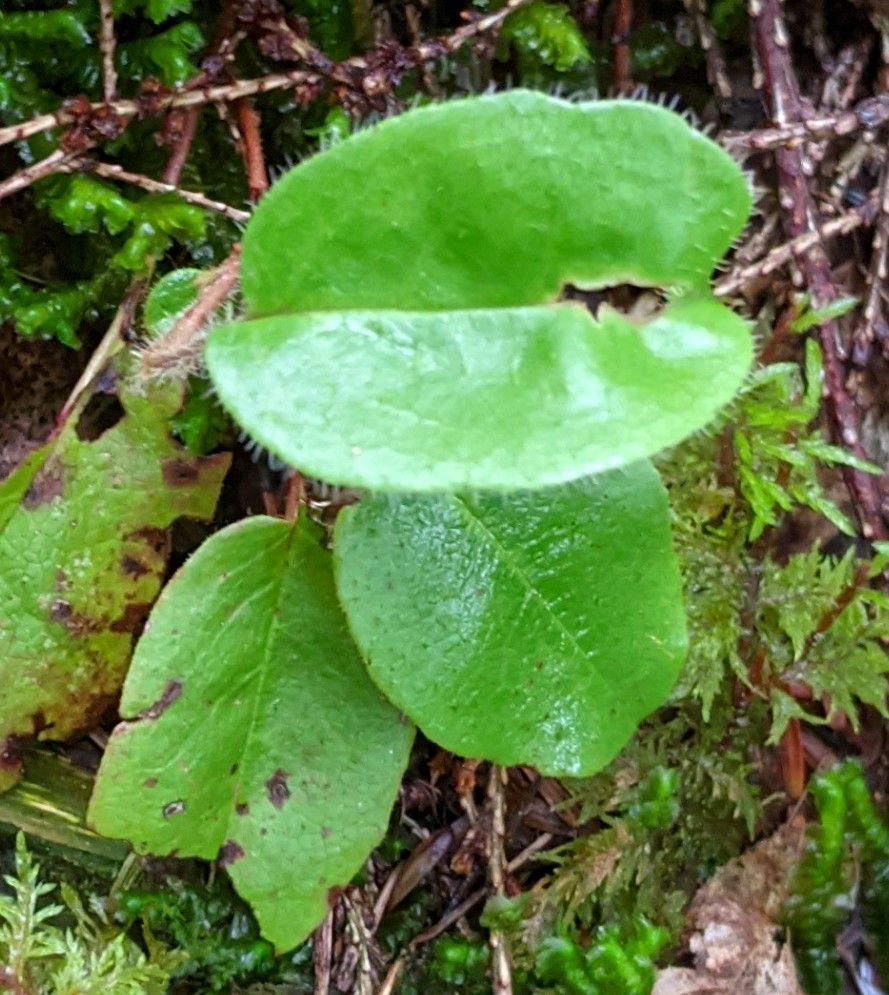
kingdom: Plantae
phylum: Tracheophyta
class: Magnoliopsida
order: Ericales
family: Ericaceae
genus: Epigaea
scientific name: Epigaea repens
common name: Gravelroot
